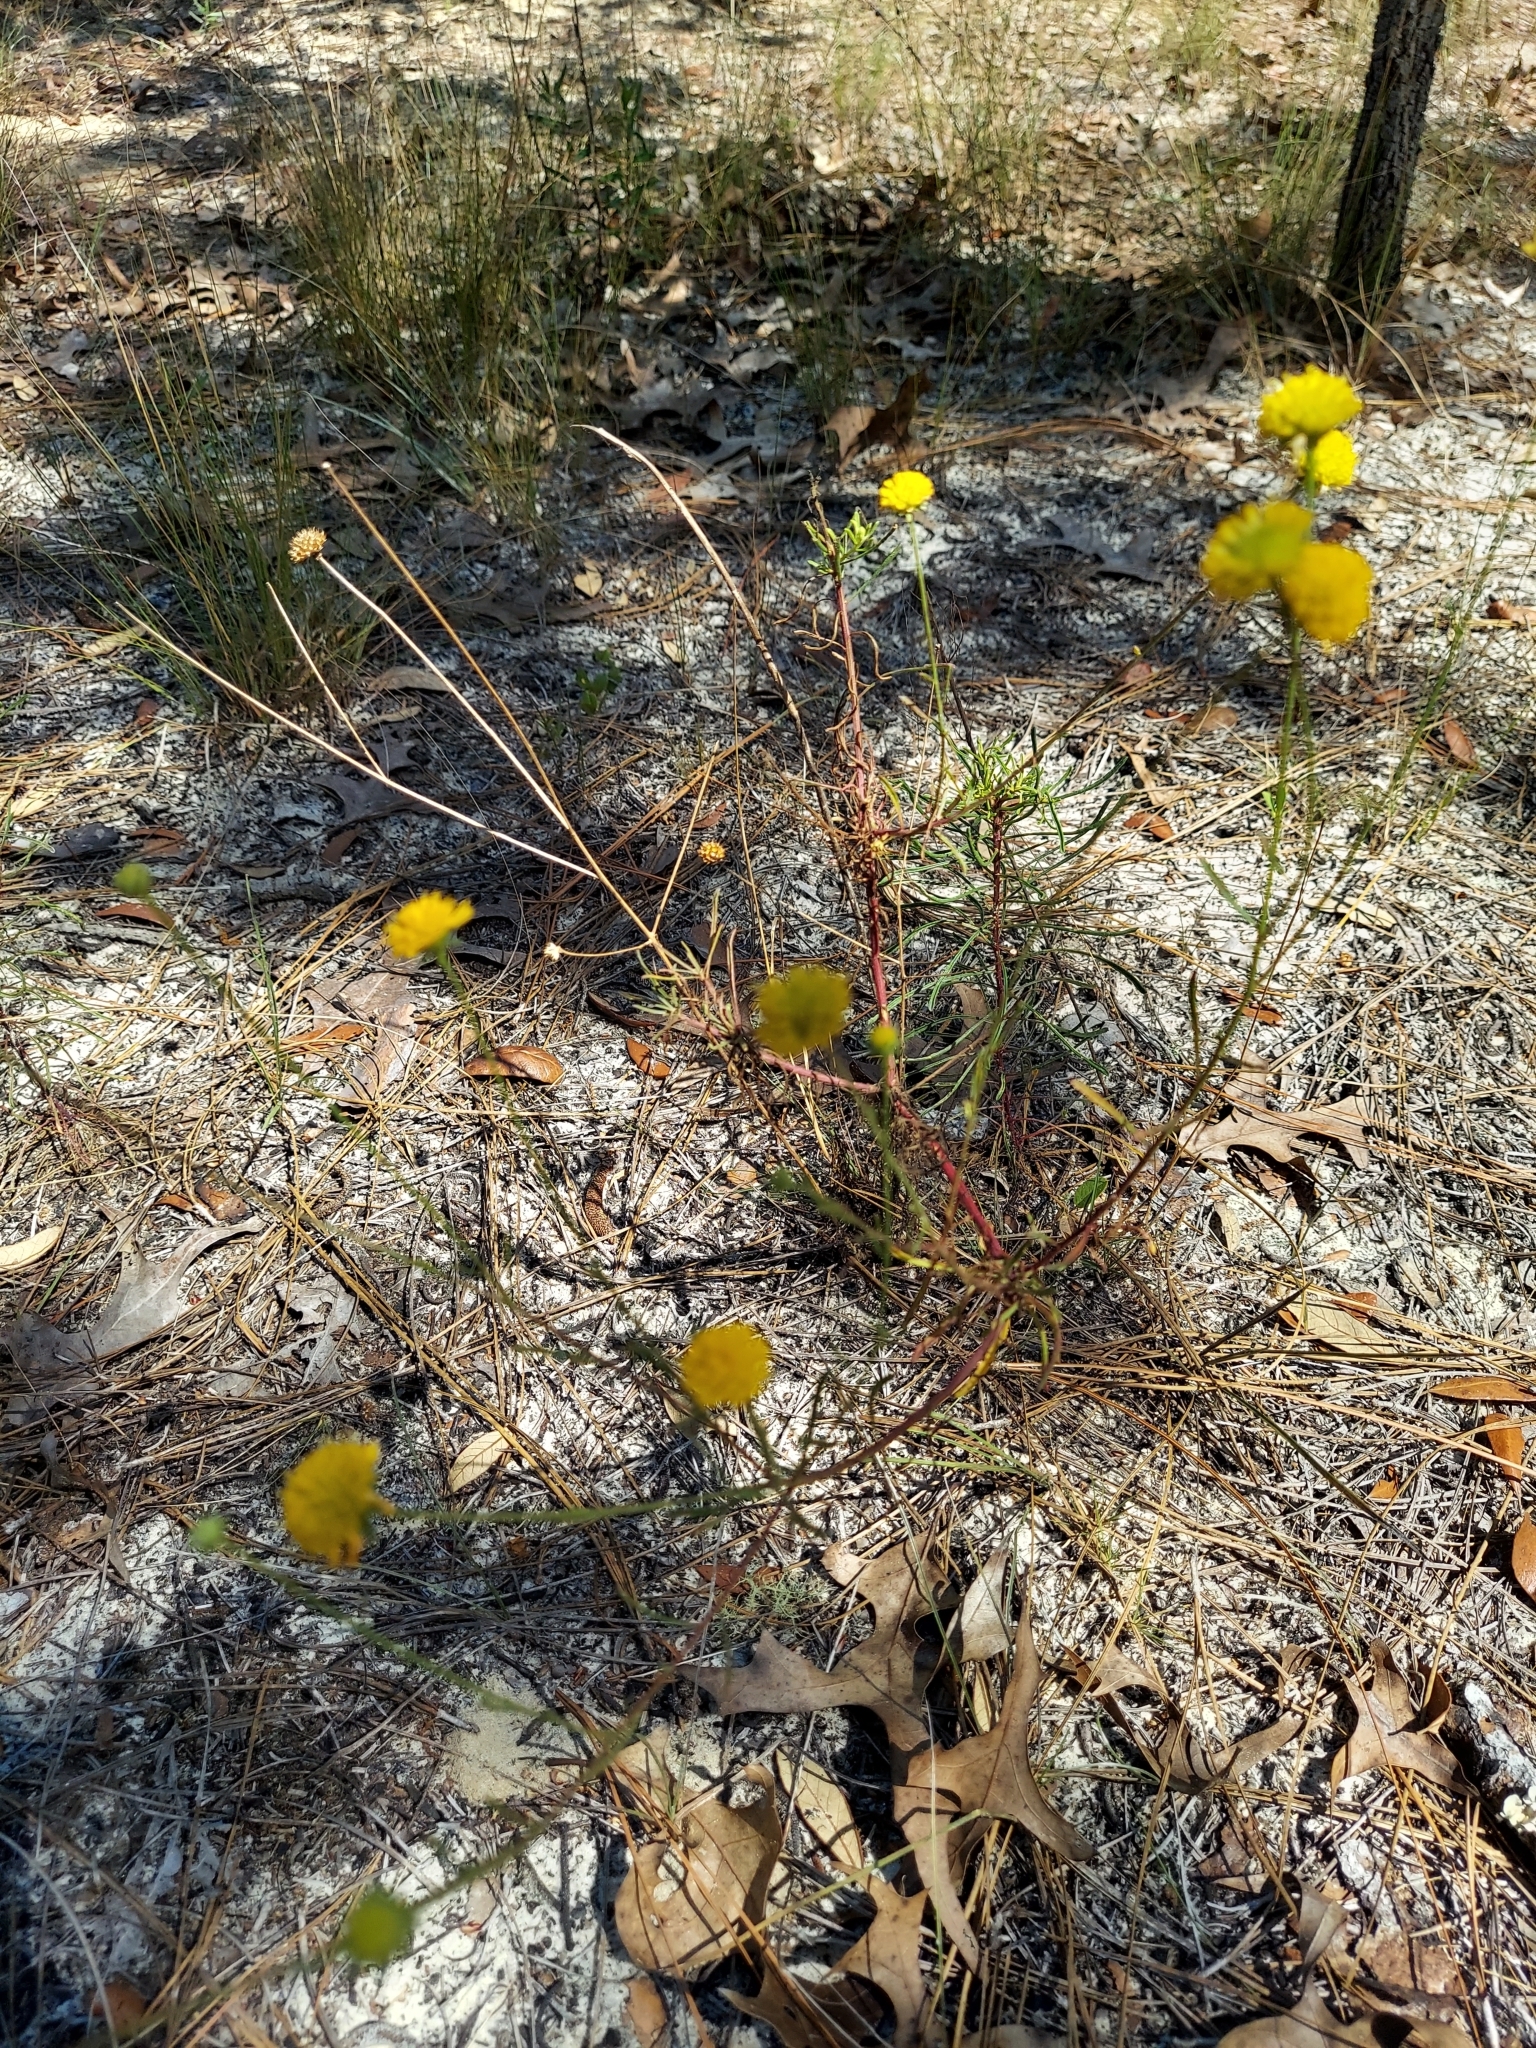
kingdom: Plantae
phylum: Tracheophyta
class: Magnoliopsida
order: Asterales
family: Asteraceae
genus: Balduina
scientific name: Balduina angustifolia
